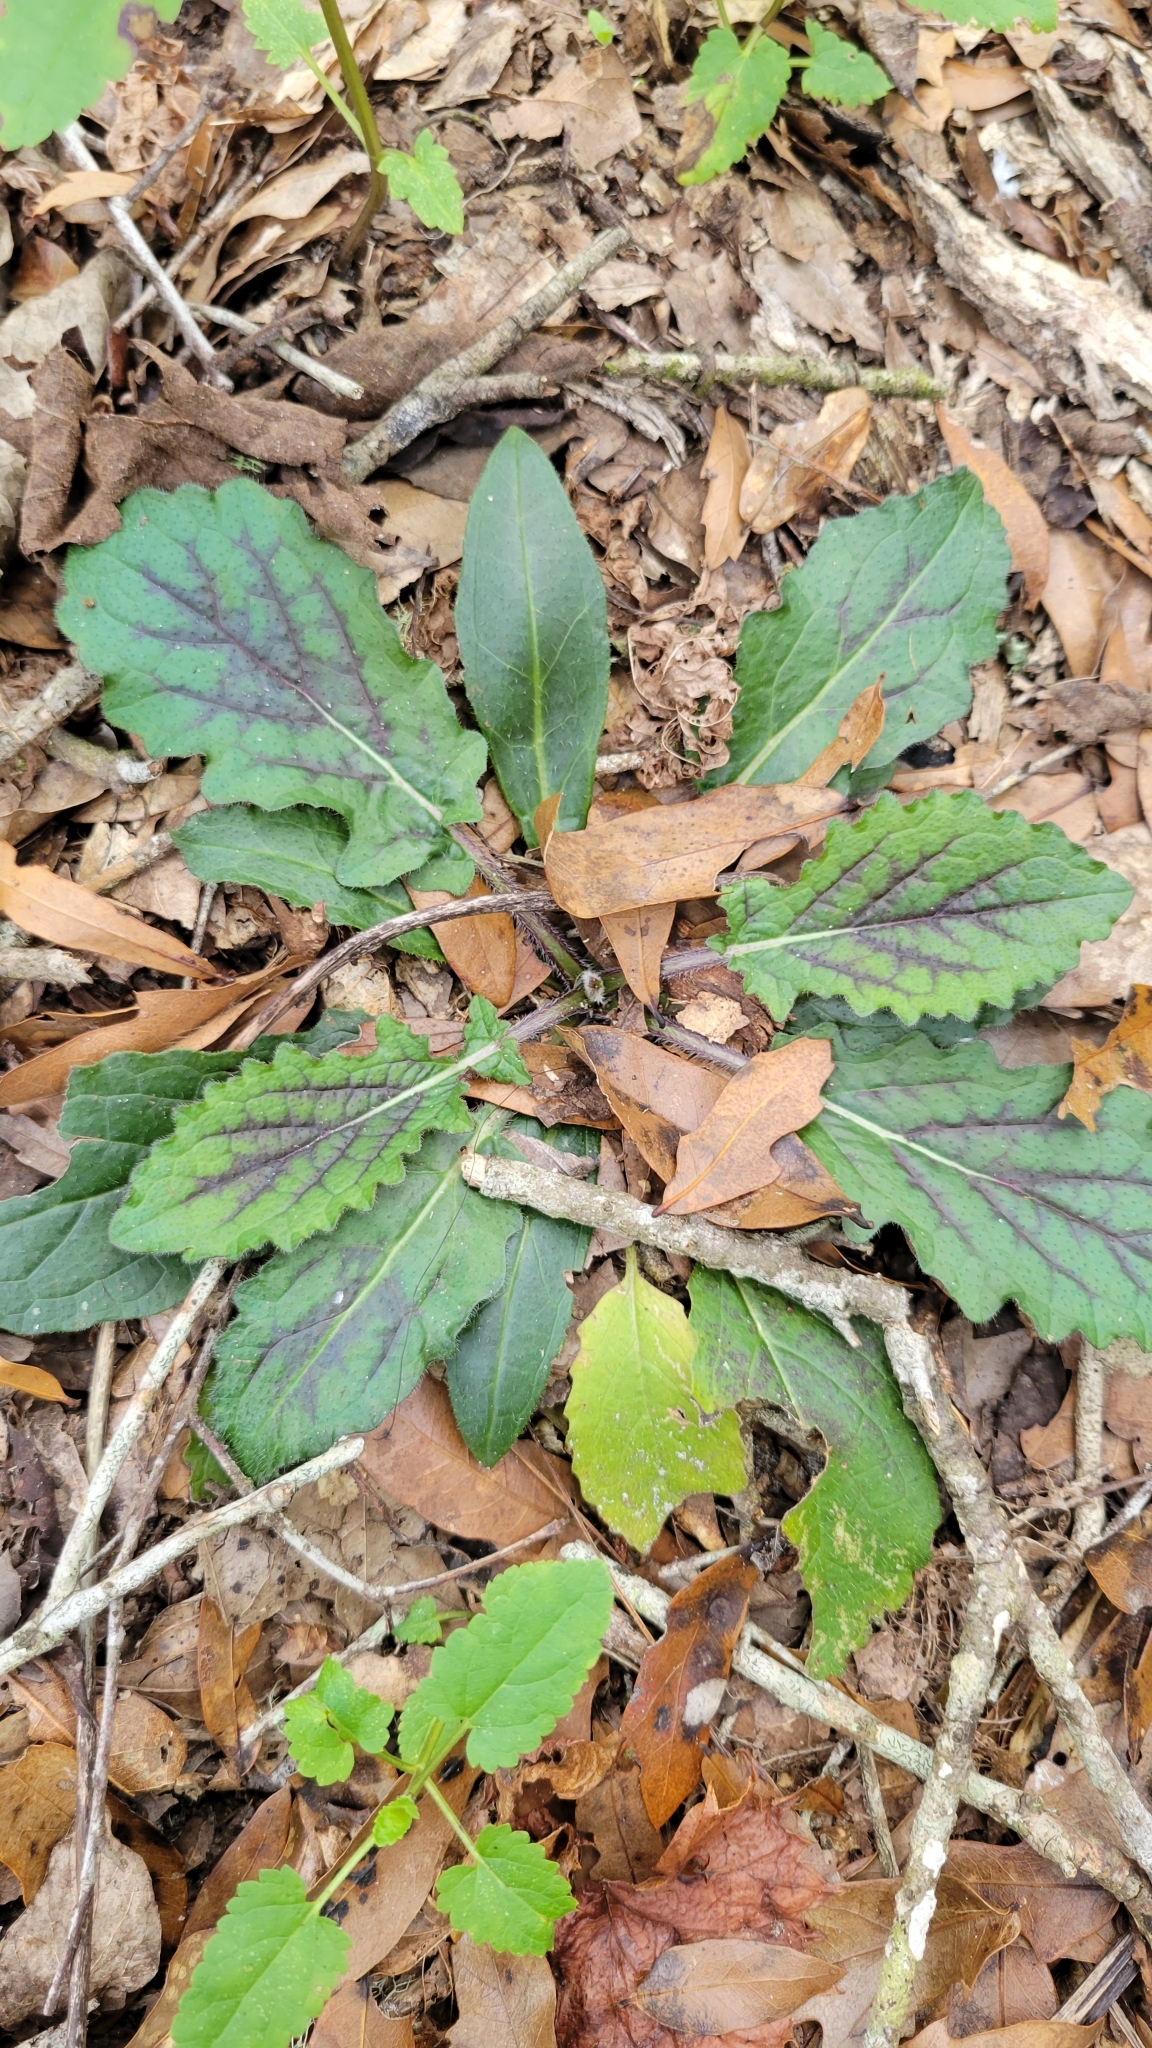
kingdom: Plantae
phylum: Tracheophyta
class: Magnoliopsida
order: Lamiales
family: Lamiaceae
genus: Salvia
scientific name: Salvia lyrata
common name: Cancerweed
